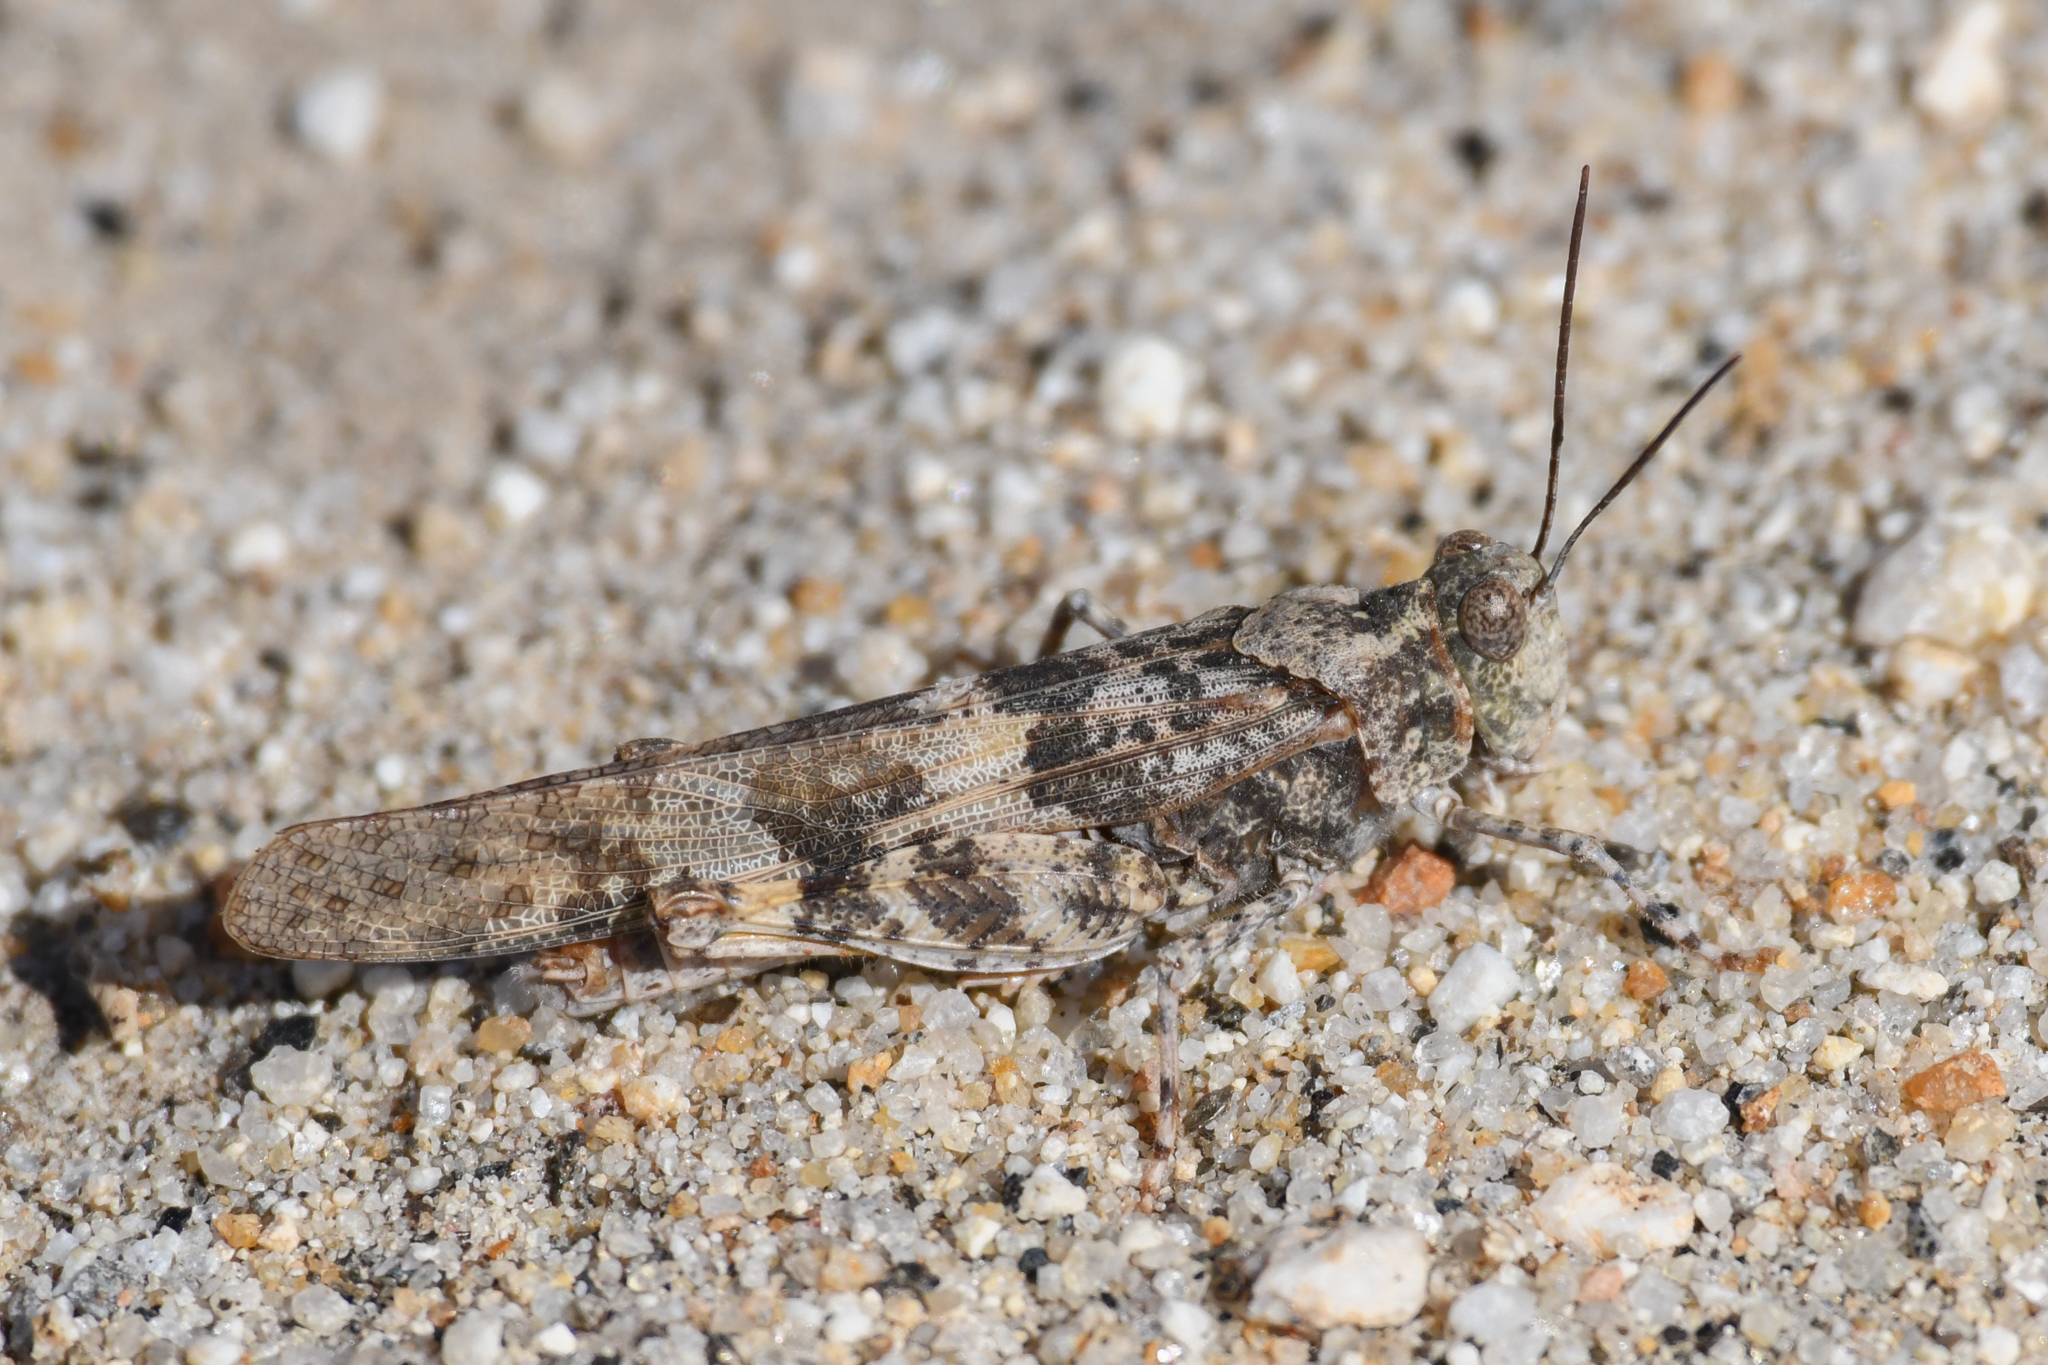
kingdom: Animalia
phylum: Arthropoda
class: Insecta
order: Orthoptera
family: Acrididae
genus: Trimerotropis
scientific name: Trimerotropis pallidipennis
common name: Pallid-winged grasshopper
